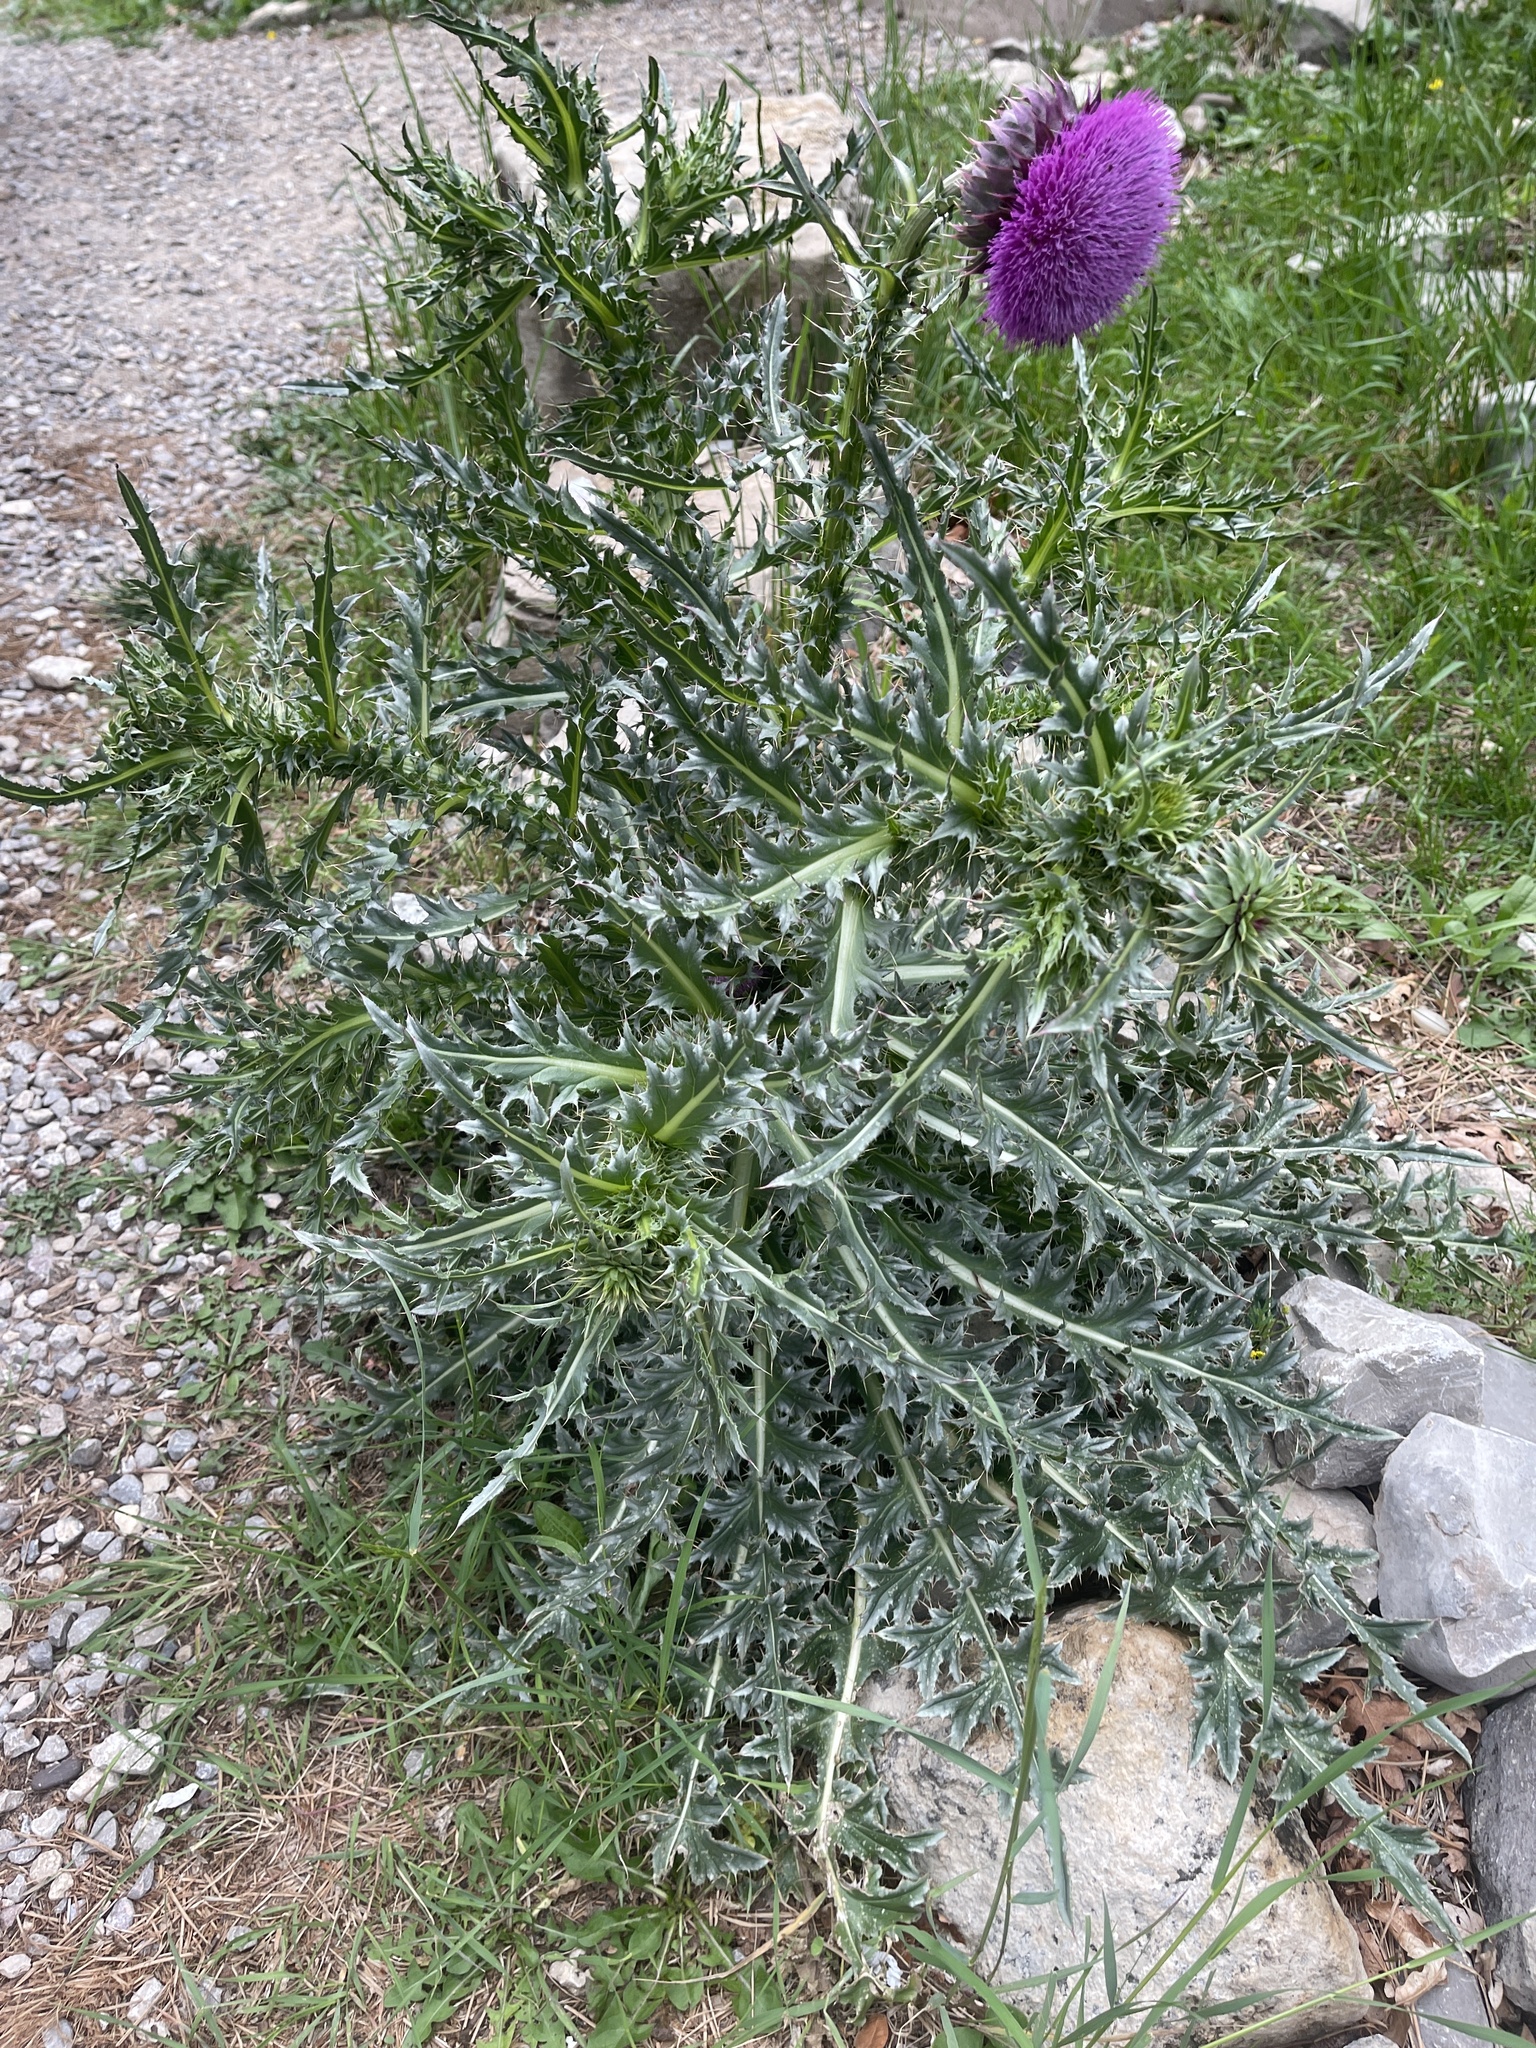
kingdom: Plantae
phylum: Tracheophyta
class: Magnoliopsida
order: Asterales
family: Asteraceae
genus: Carduus
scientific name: Carduus nutans
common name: Musk thistle
